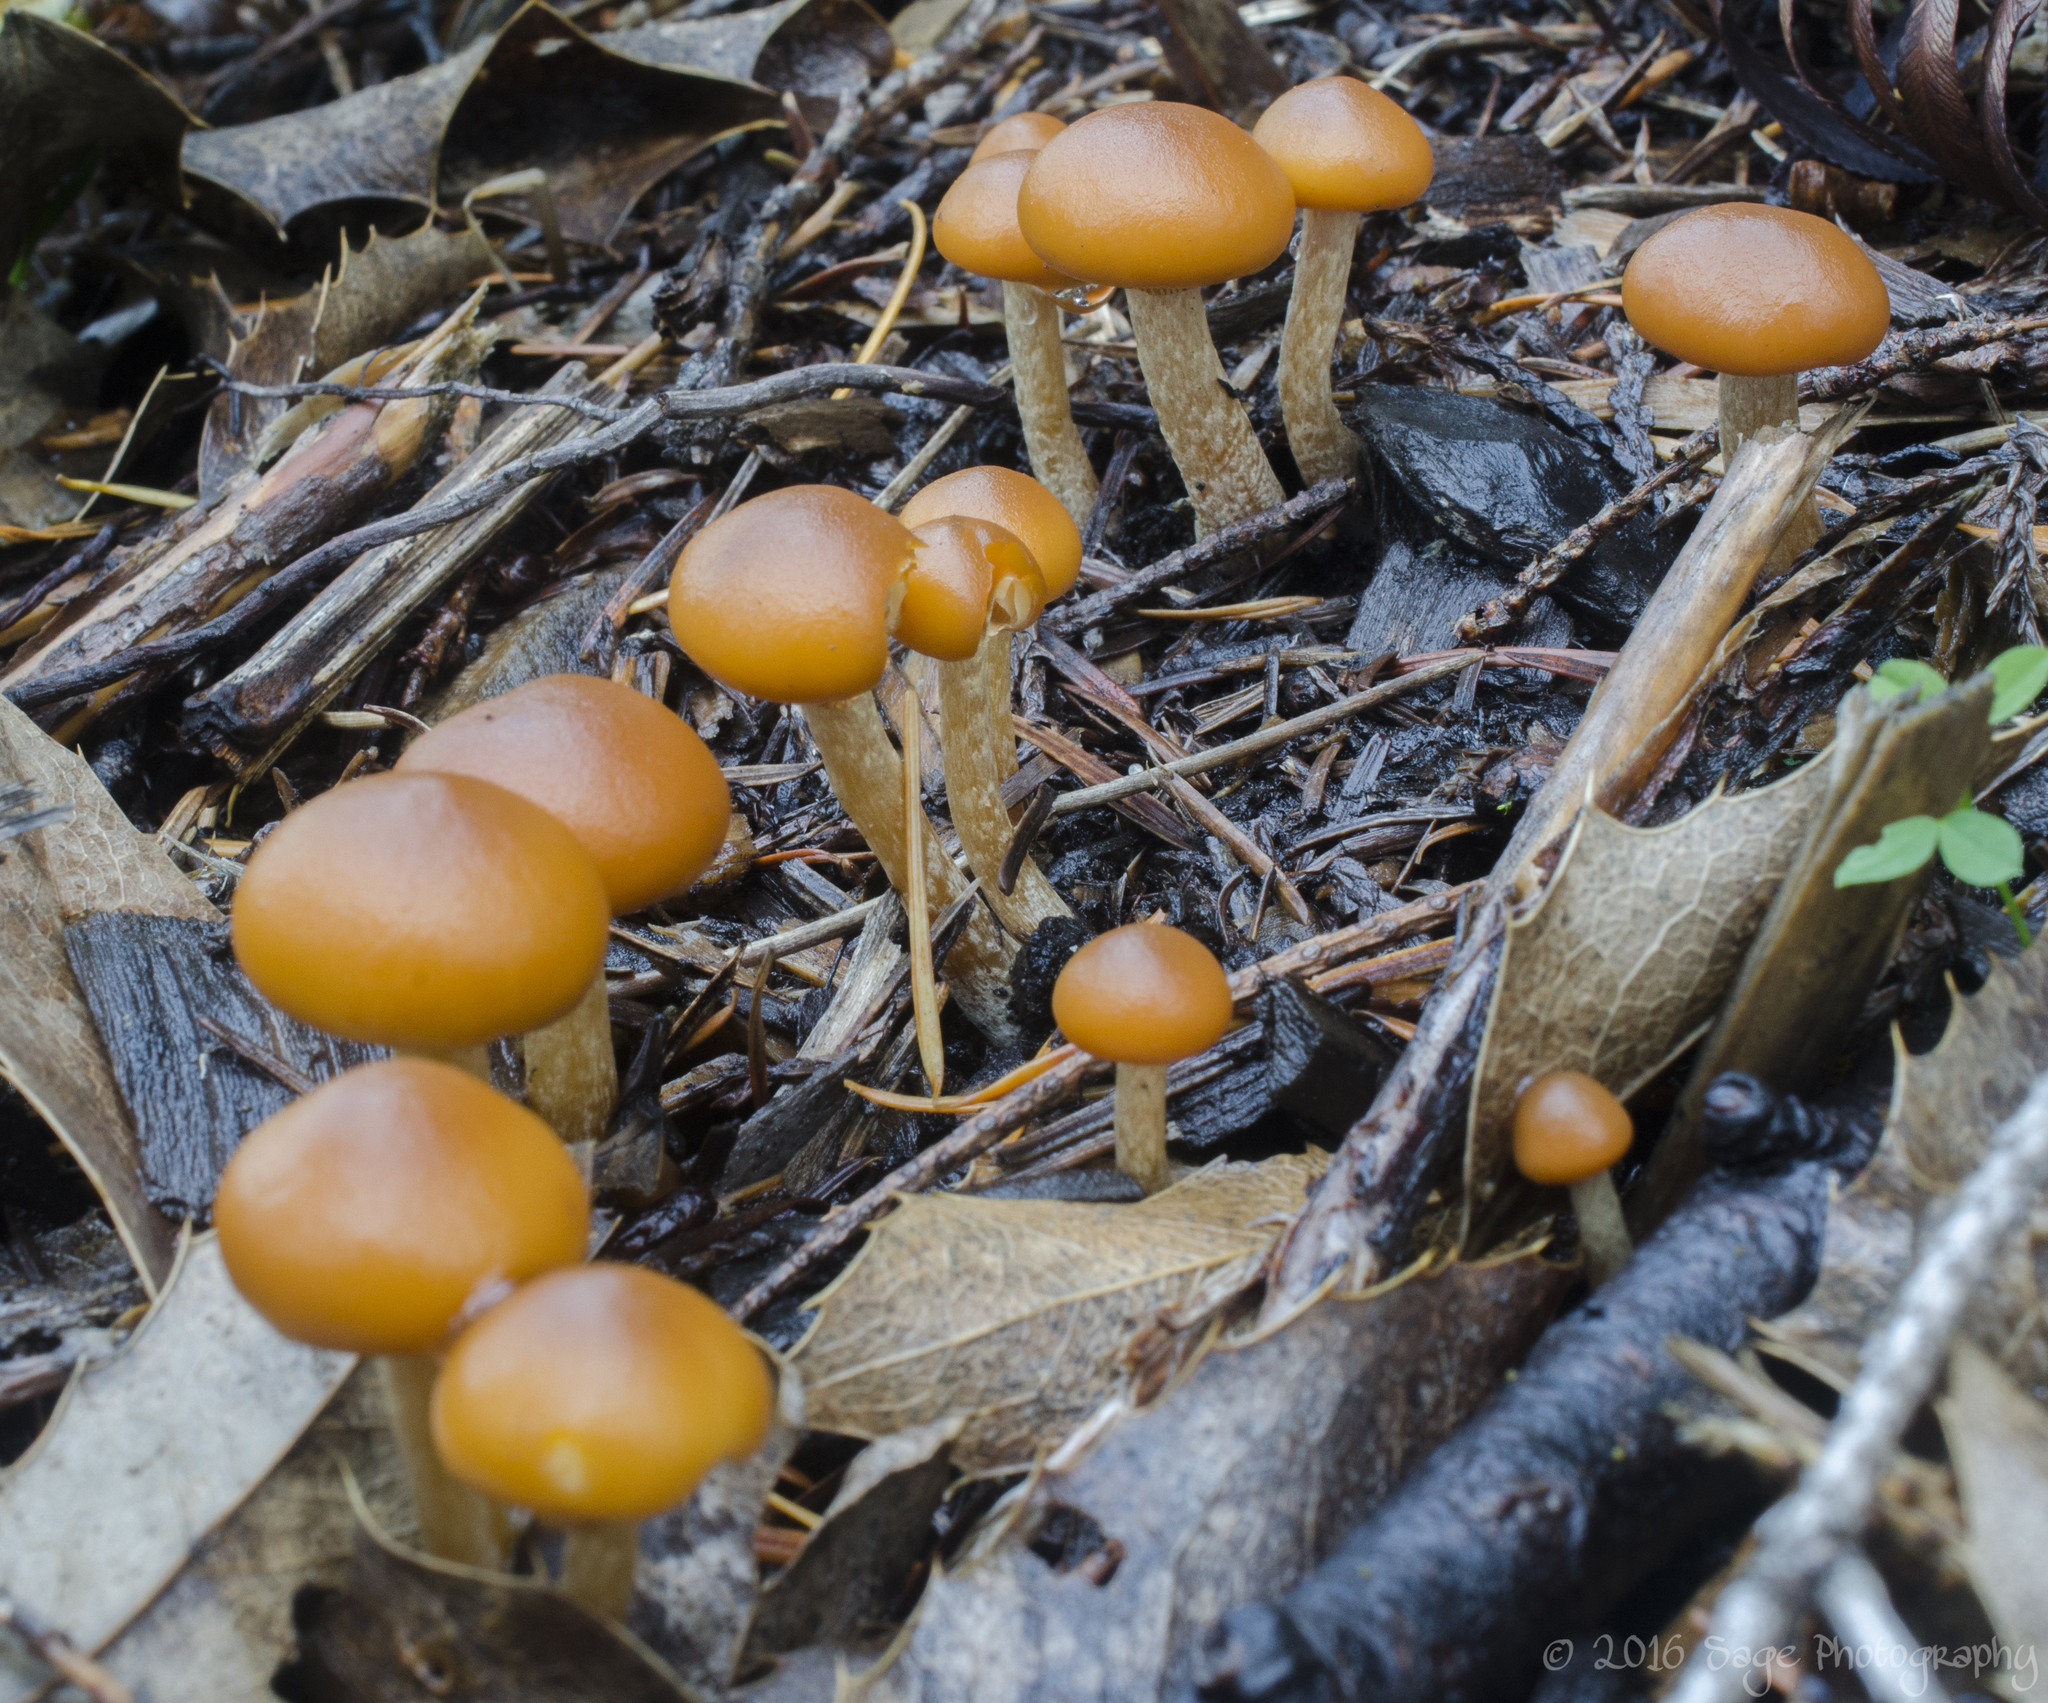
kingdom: Fungi
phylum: Basidiomycota
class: Agaricomycetes
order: Agaricales
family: Hymenogastraceae
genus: Galerina
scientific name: Galerina marginata
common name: Funeral bell
